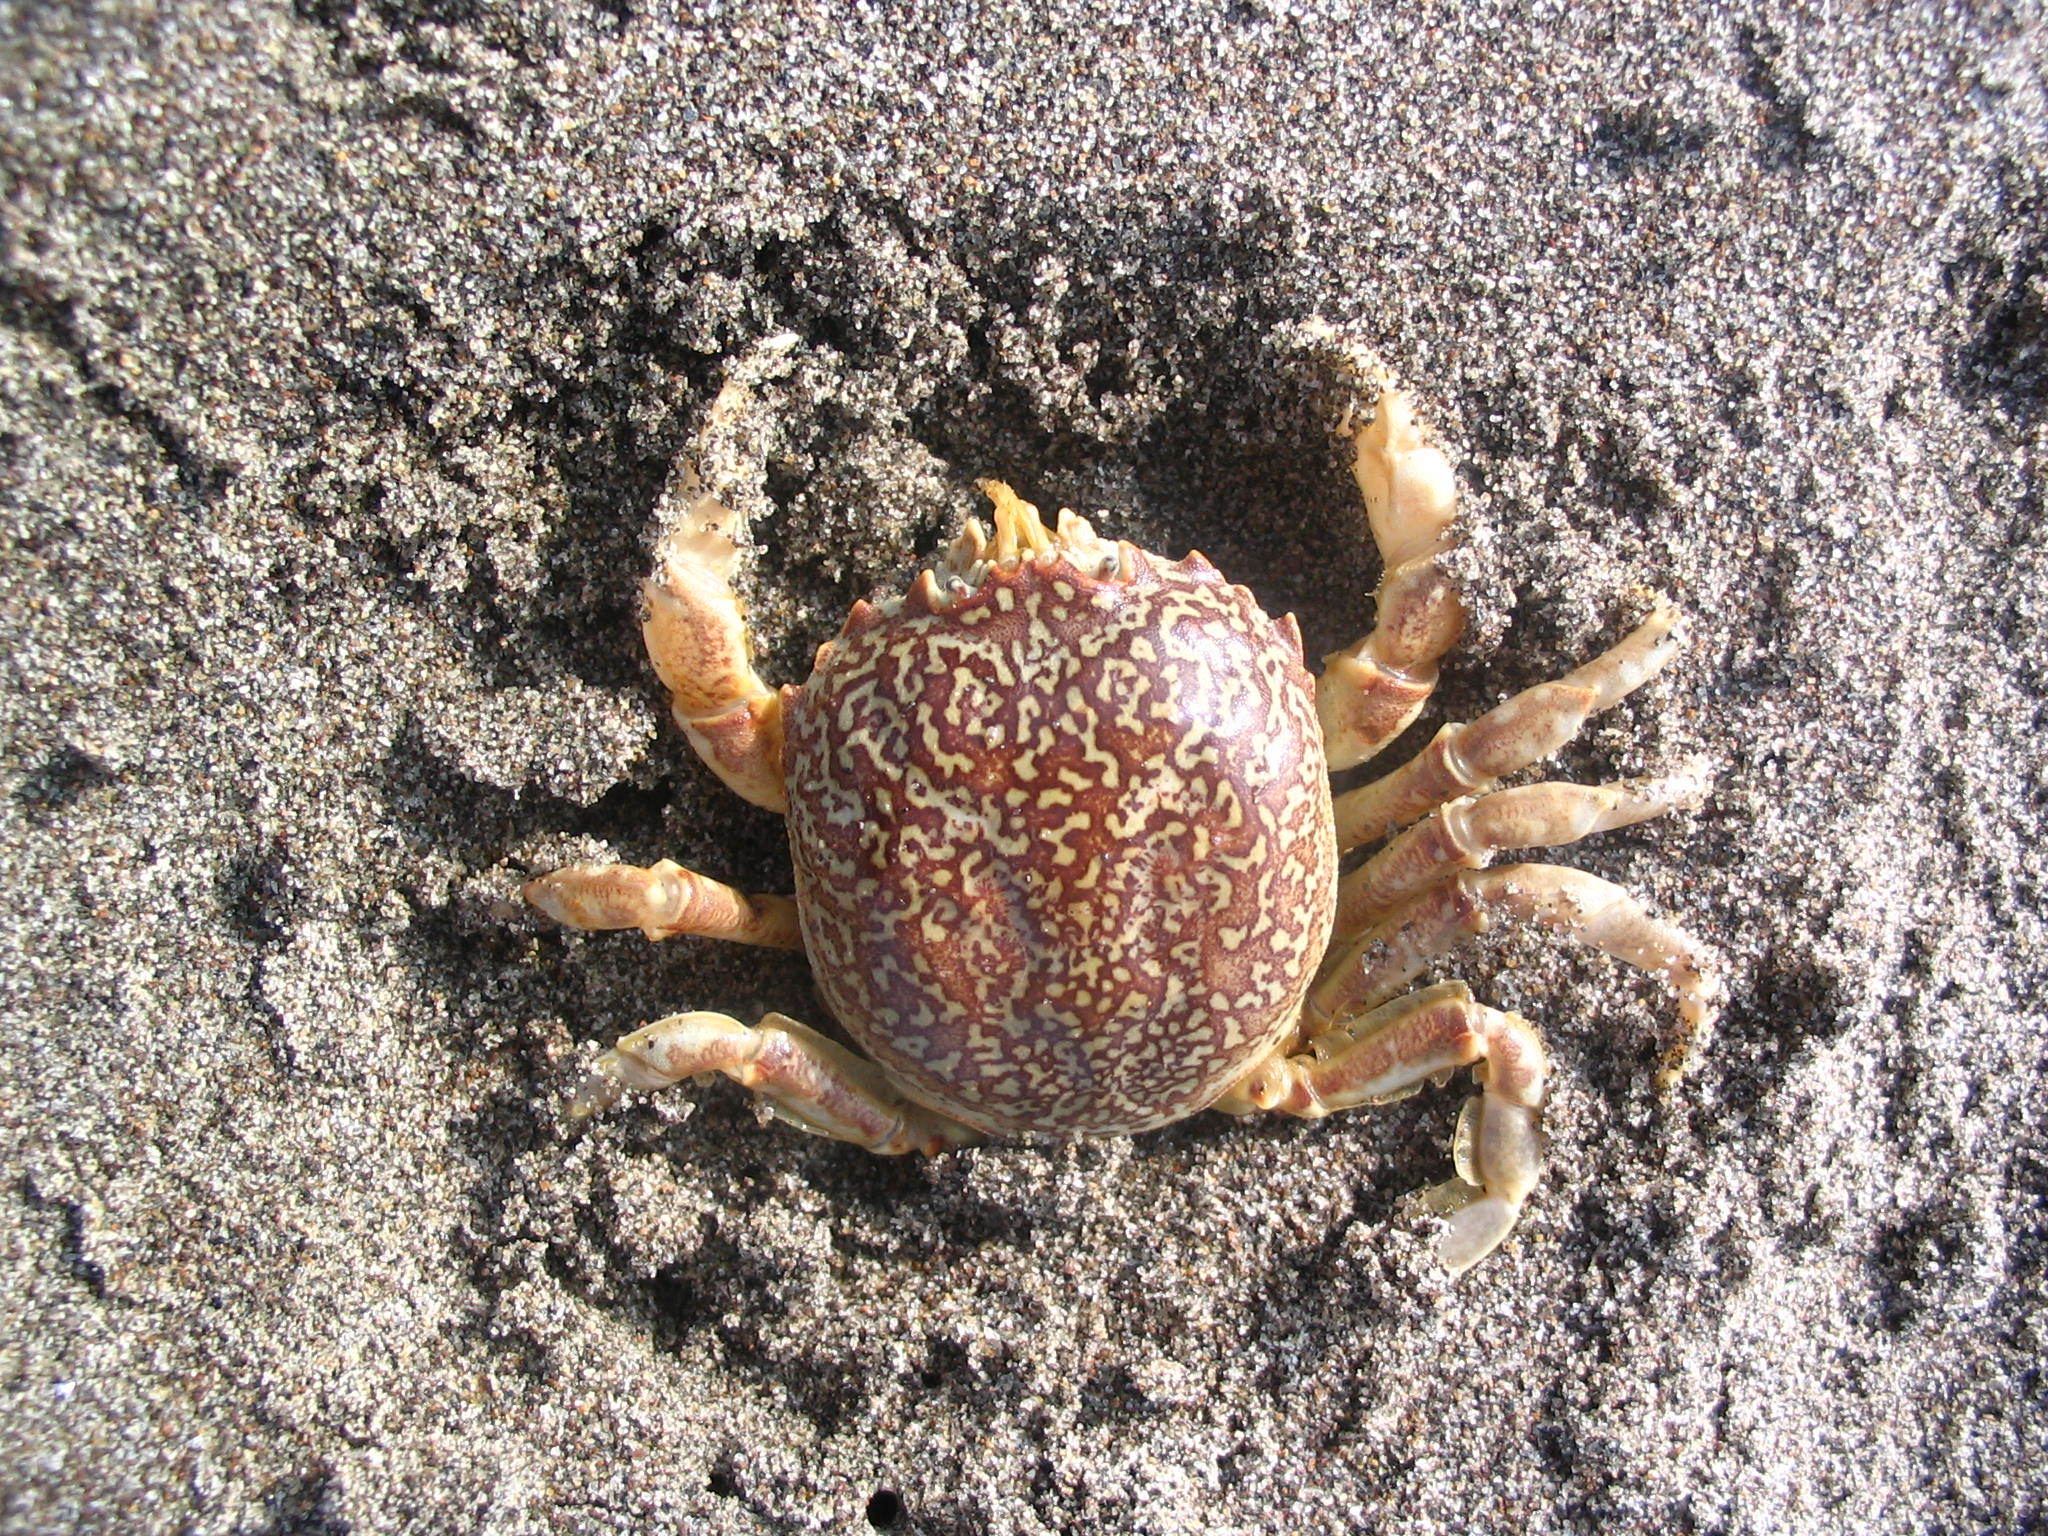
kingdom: Animalia
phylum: Arthropoda
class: Malacostraca
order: Decapoda
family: Belliidae
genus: Bellia
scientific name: Bellia picta
